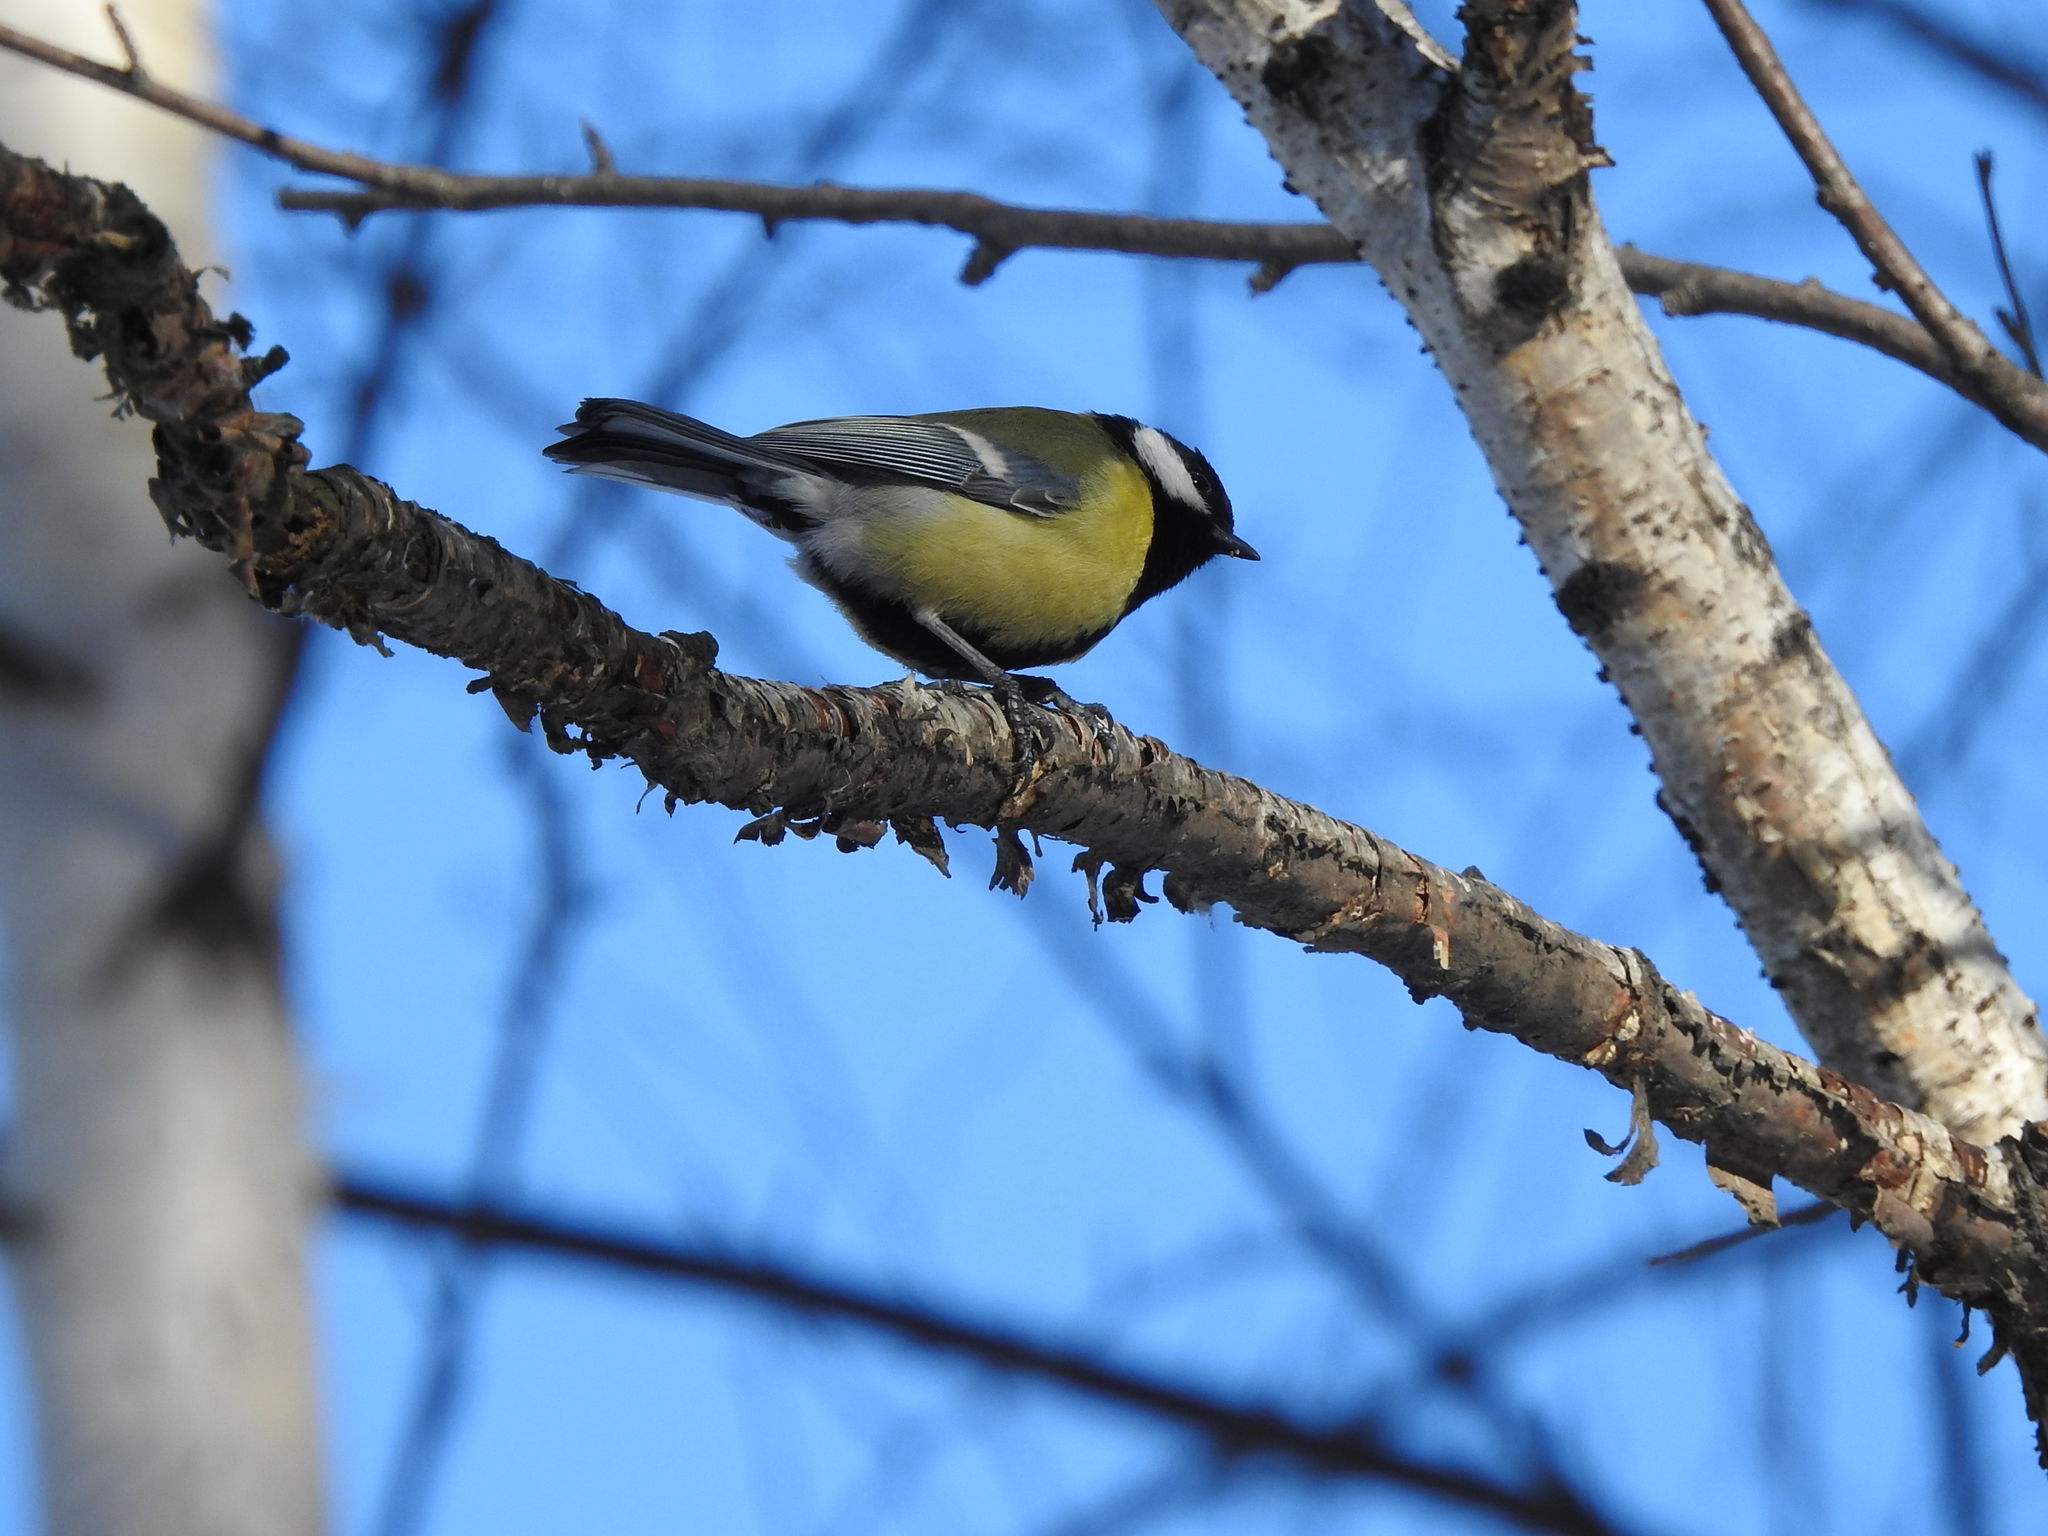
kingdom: Animalia
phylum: Chordata
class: Aves
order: Passeriformes
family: Paridae
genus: Parus
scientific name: Parus major
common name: Great tit
